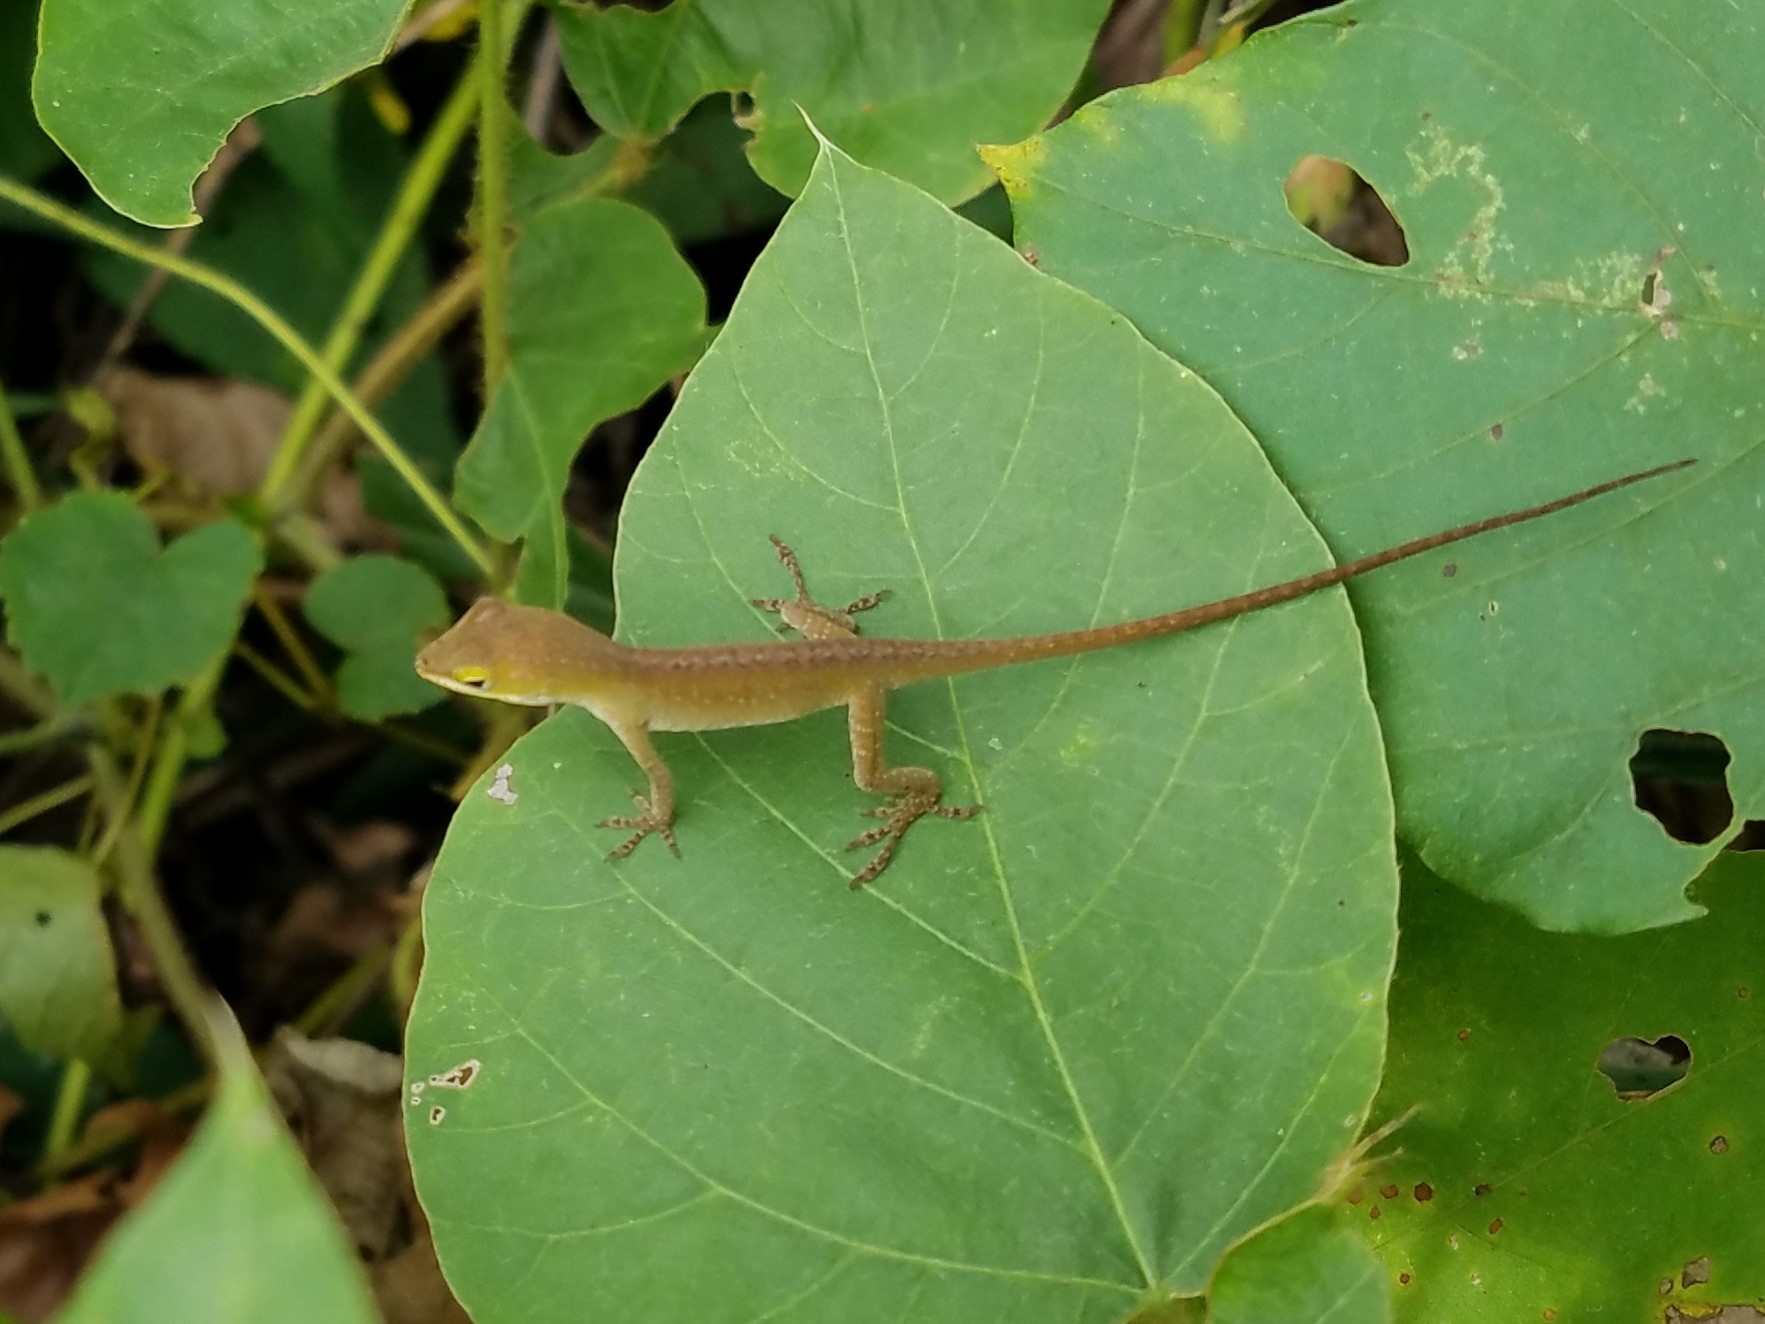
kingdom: Animalia
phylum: Chordata
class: Squamata
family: Dactyloidae
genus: Anolis
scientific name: Anolis carolinensis
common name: Green anole
